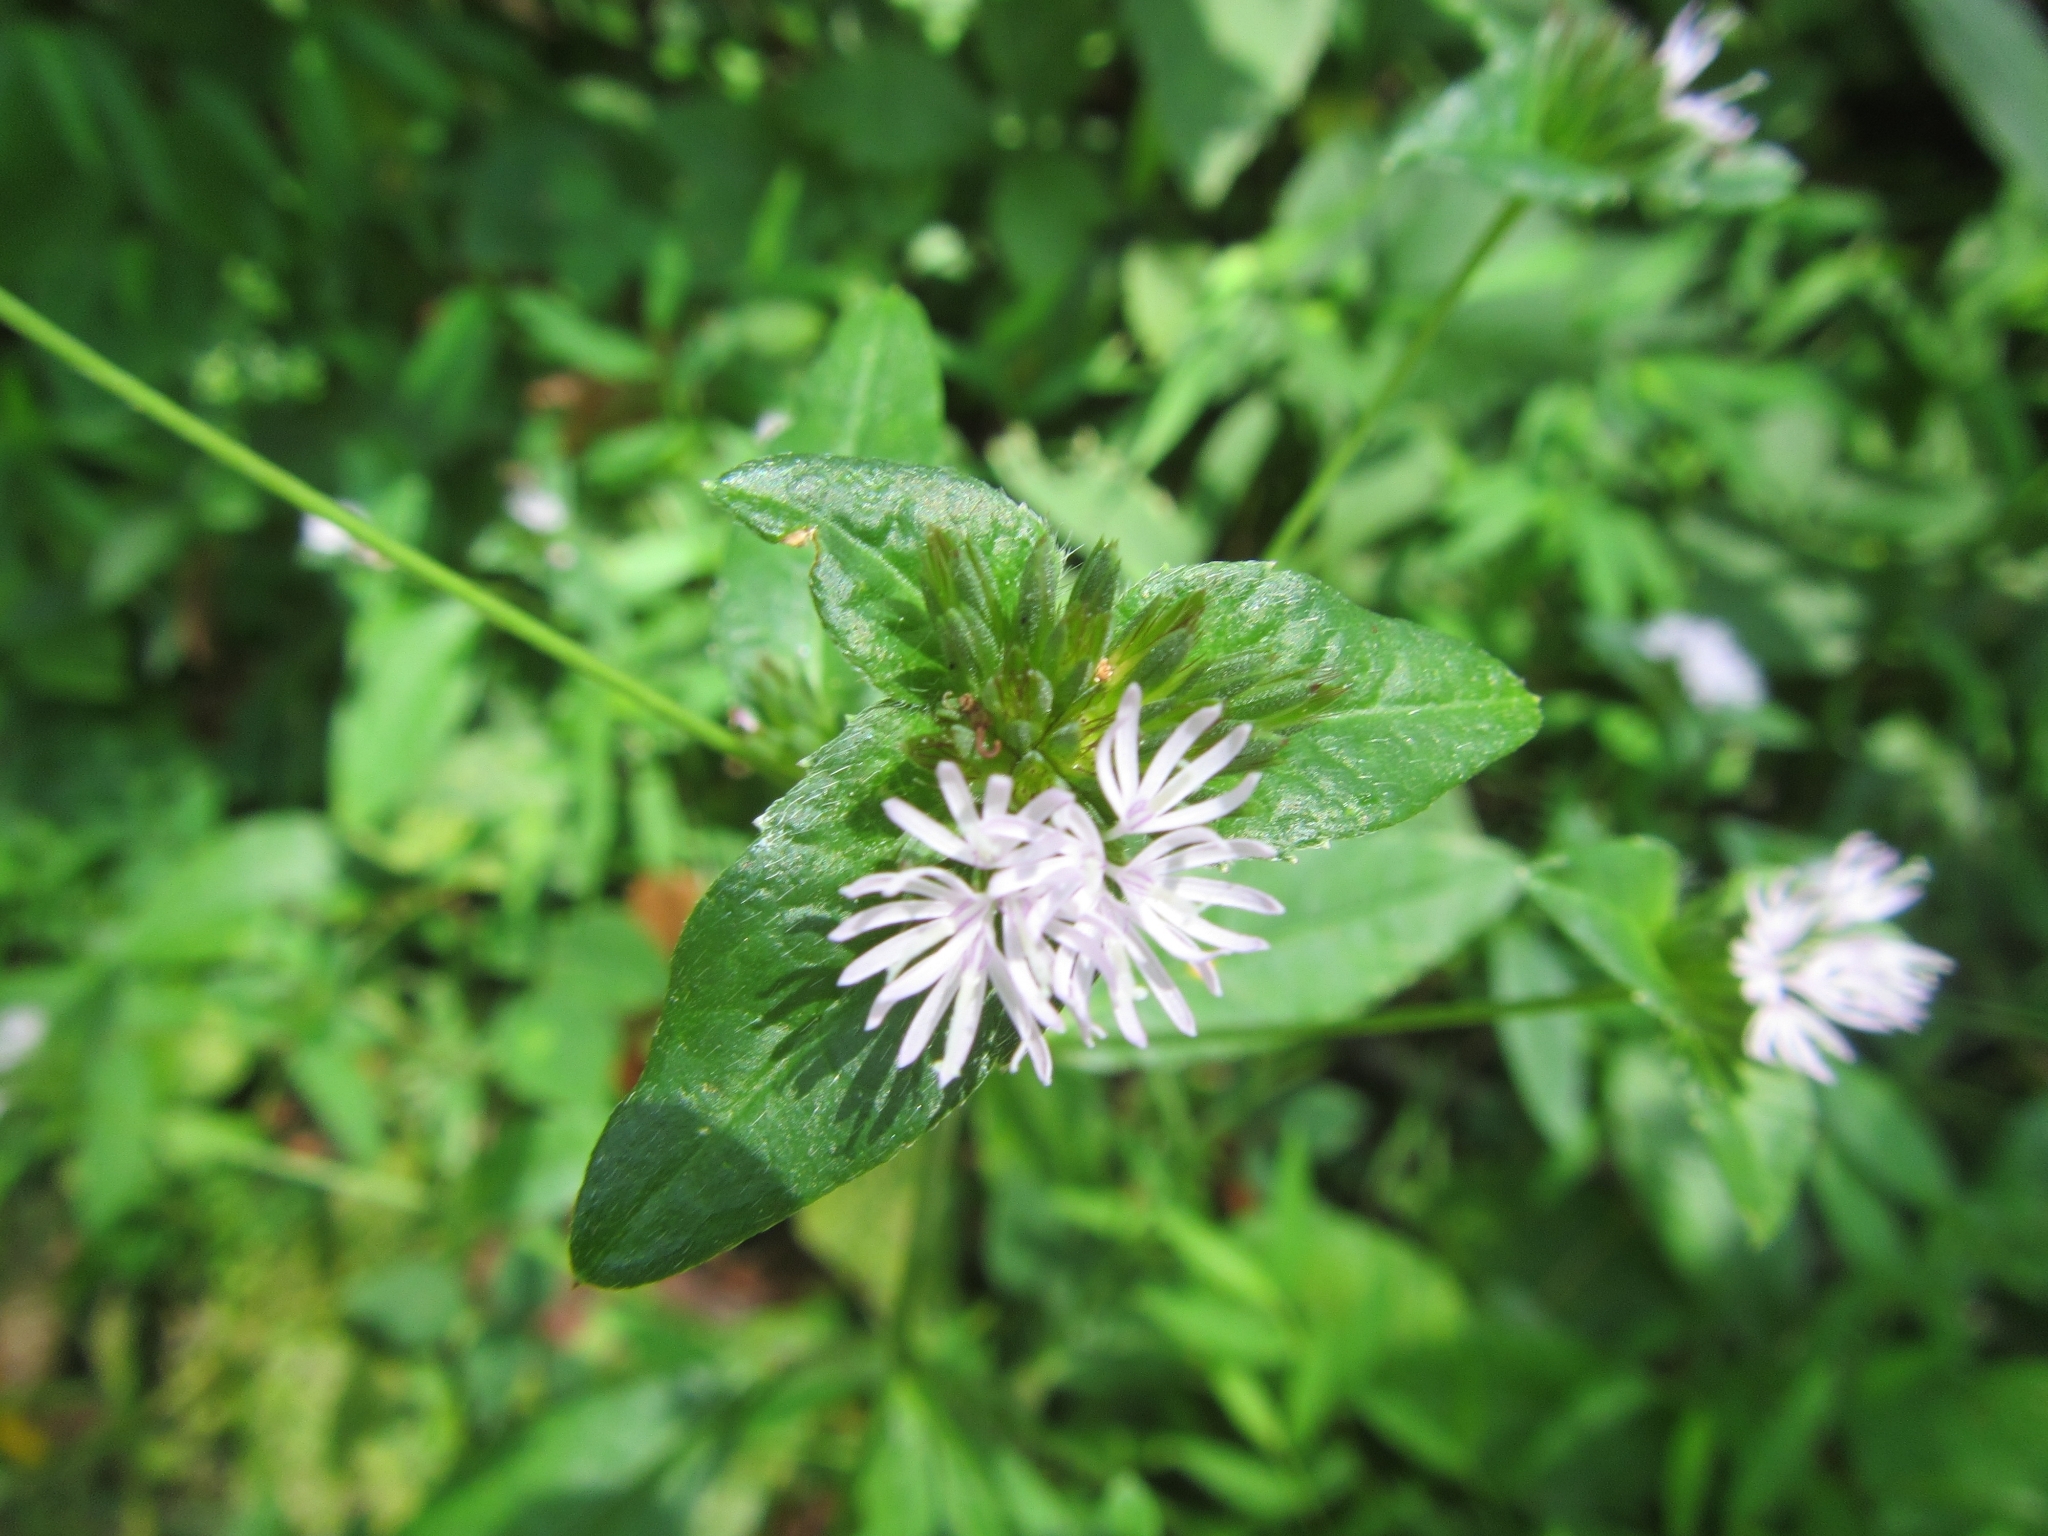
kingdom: Plantae
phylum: Tracheophyta
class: Magnoliopsida
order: Asterales
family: Asteraceae
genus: Elephantopus
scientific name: Elephantopus carolinianus
